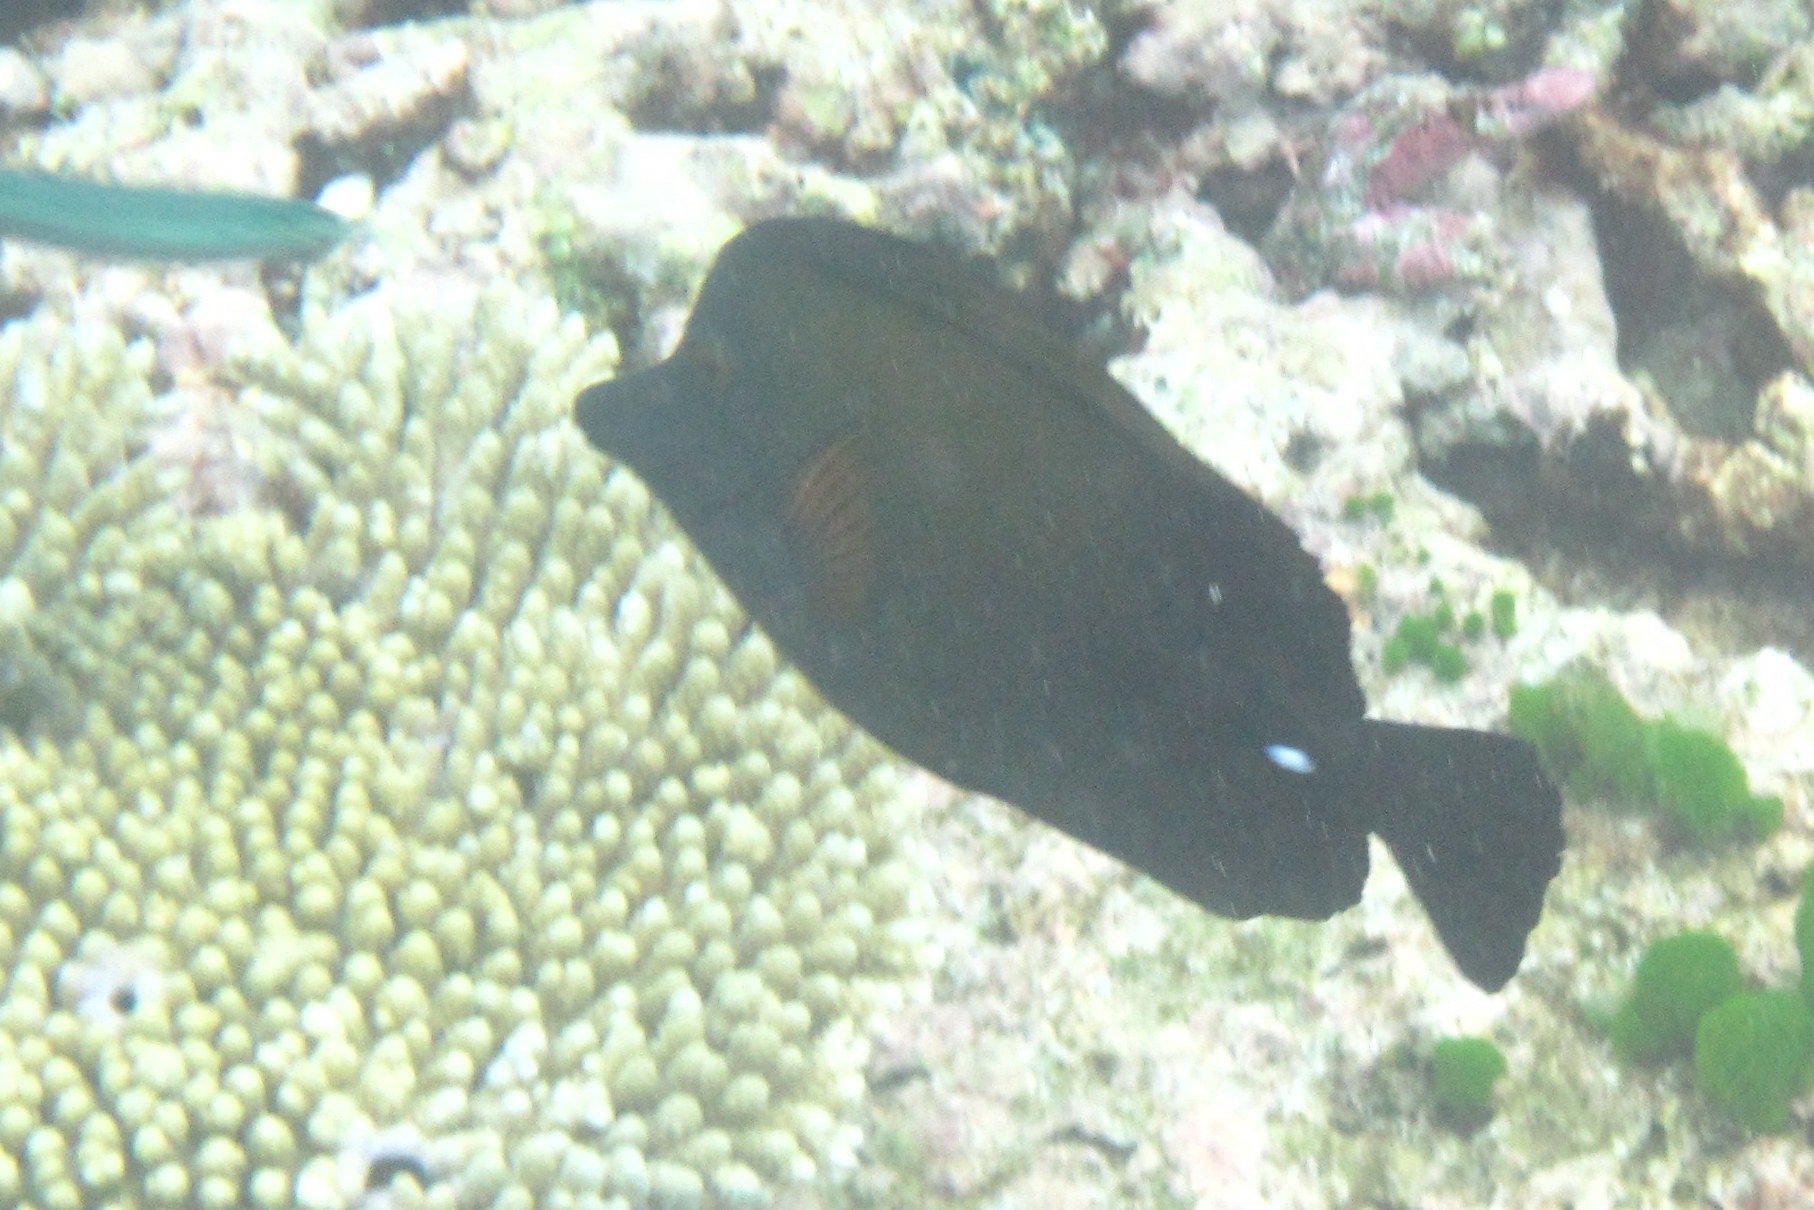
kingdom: Animalia
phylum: Chordata
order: Perciformes
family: Acanthuridae
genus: Zebrasoma
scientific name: Zebrasoma scopas
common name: Twotone tang
